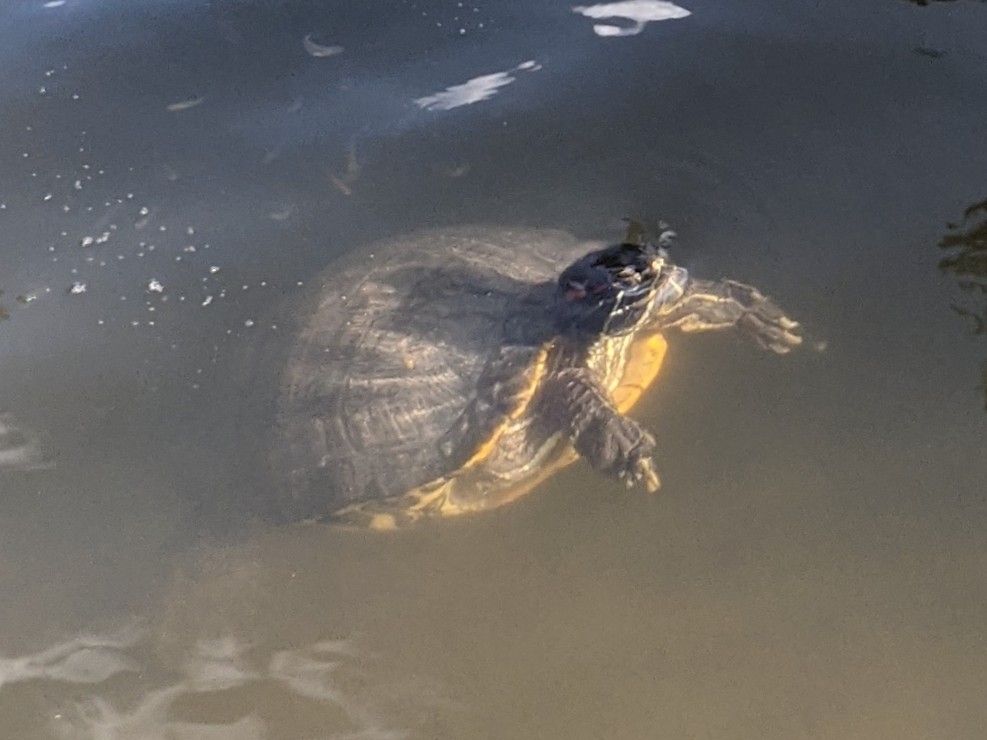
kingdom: Animalia
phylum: Chordata
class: Testudines
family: Emydidae
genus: Trachemys
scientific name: Trachemys scripta
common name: Slider
